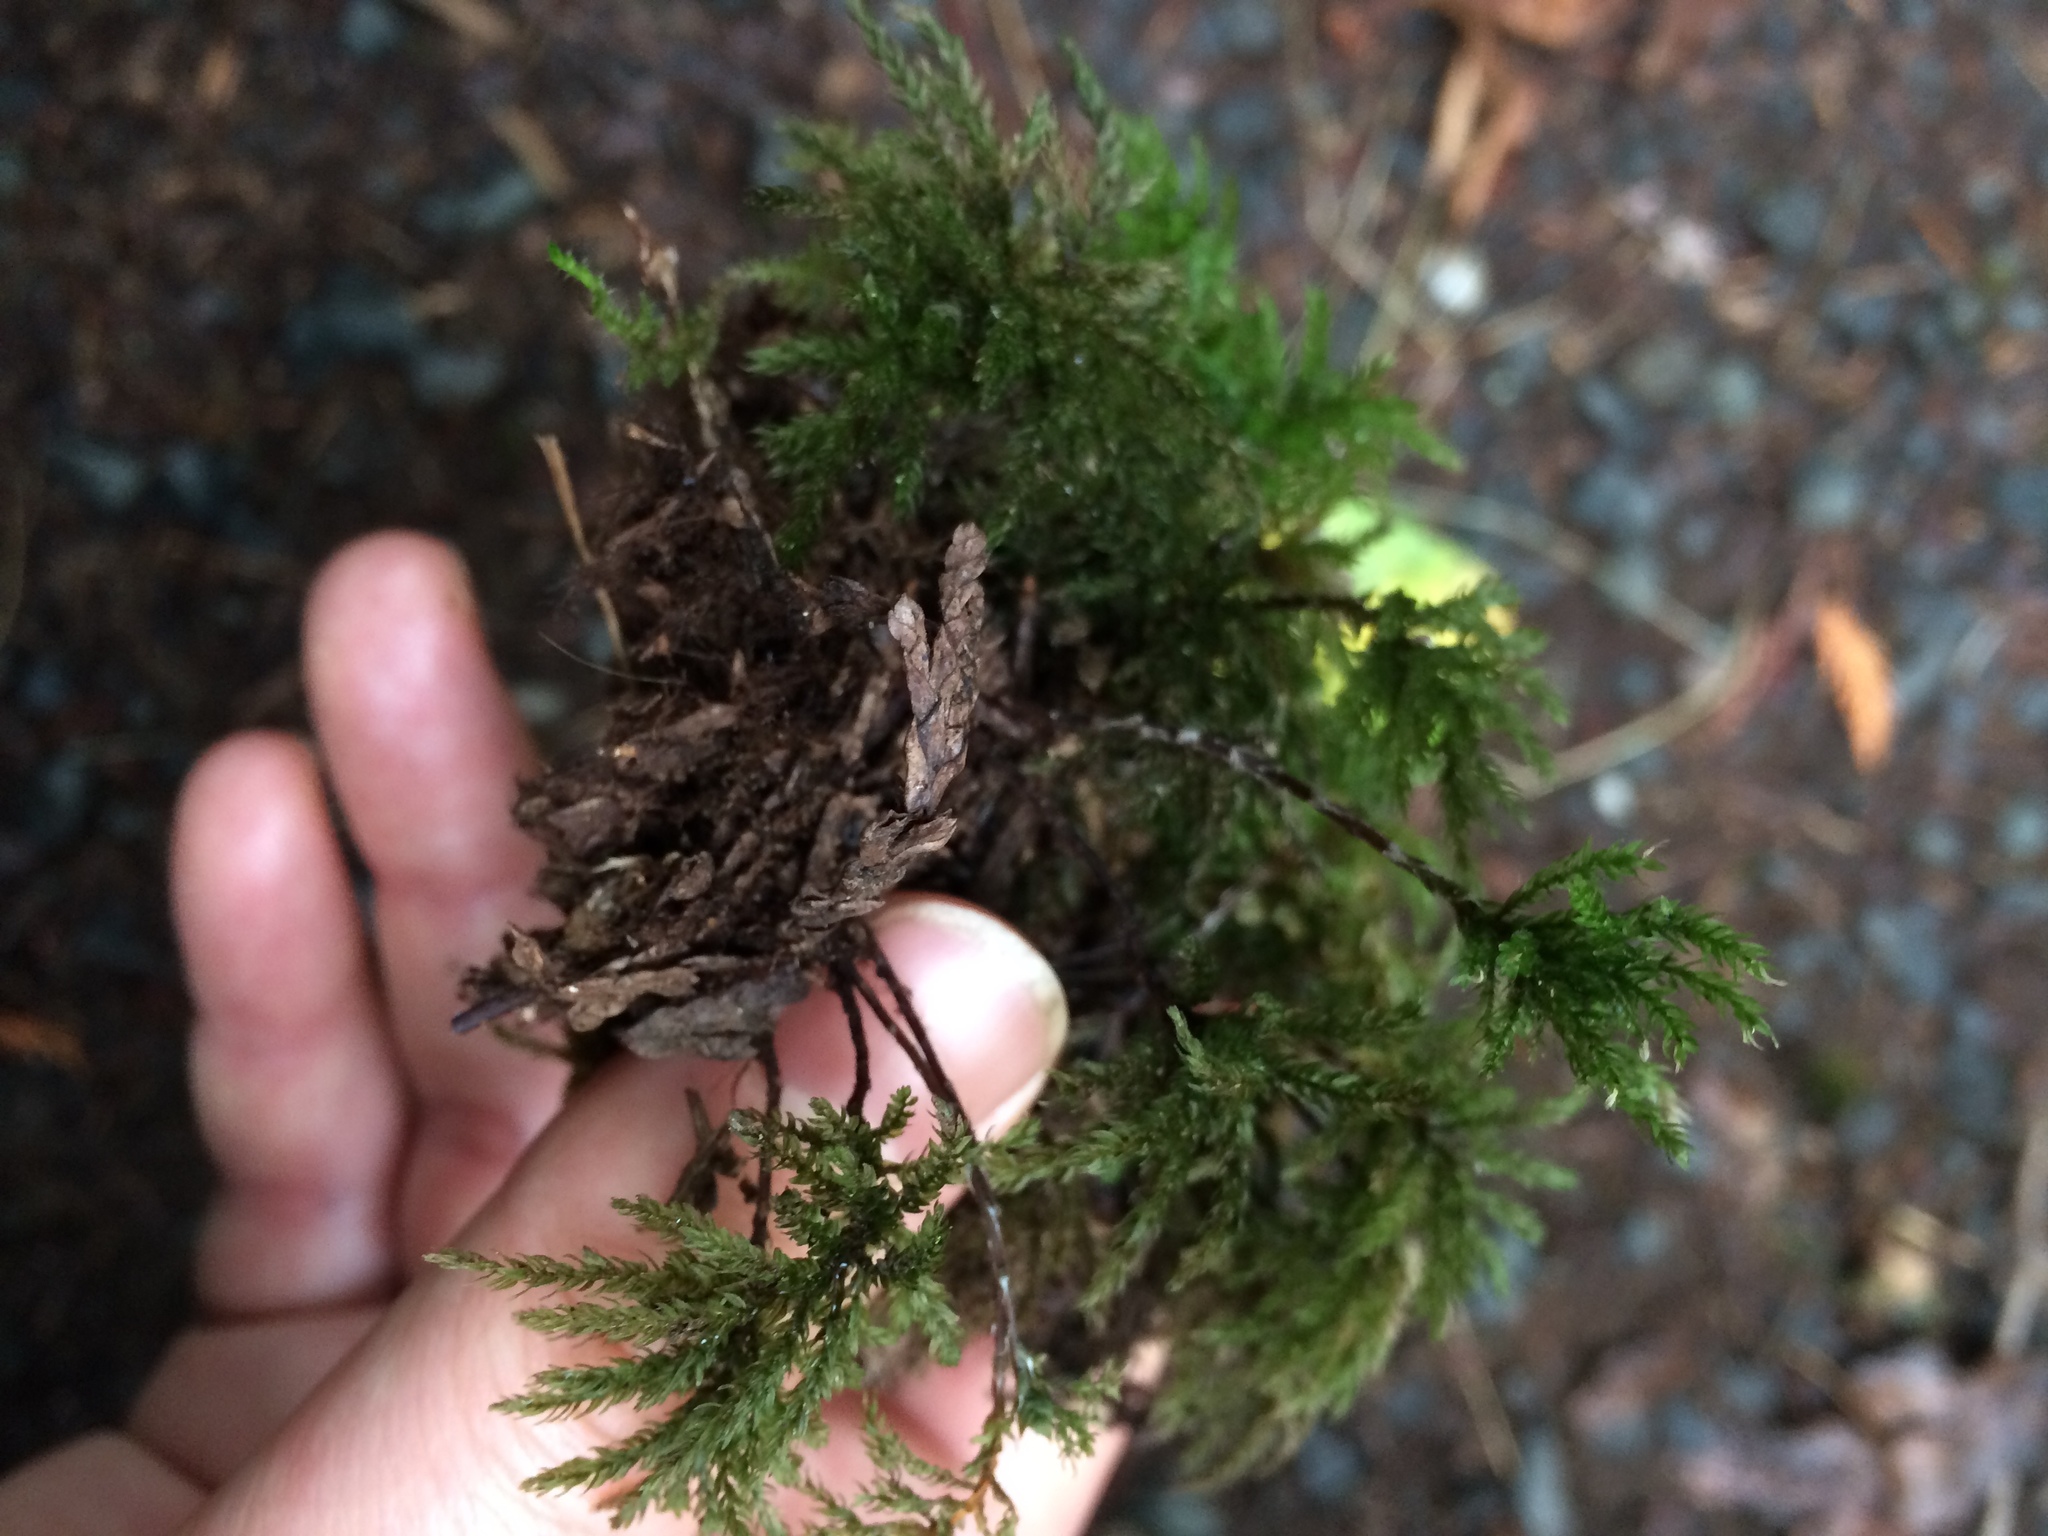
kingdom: Plantae
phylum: Bryophyta
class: Bryopsida
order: Bryales
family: Mniaceae
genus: Leucolepis
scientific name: Leucolepis acanthoneura
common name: Leucolepis umbrella moss
